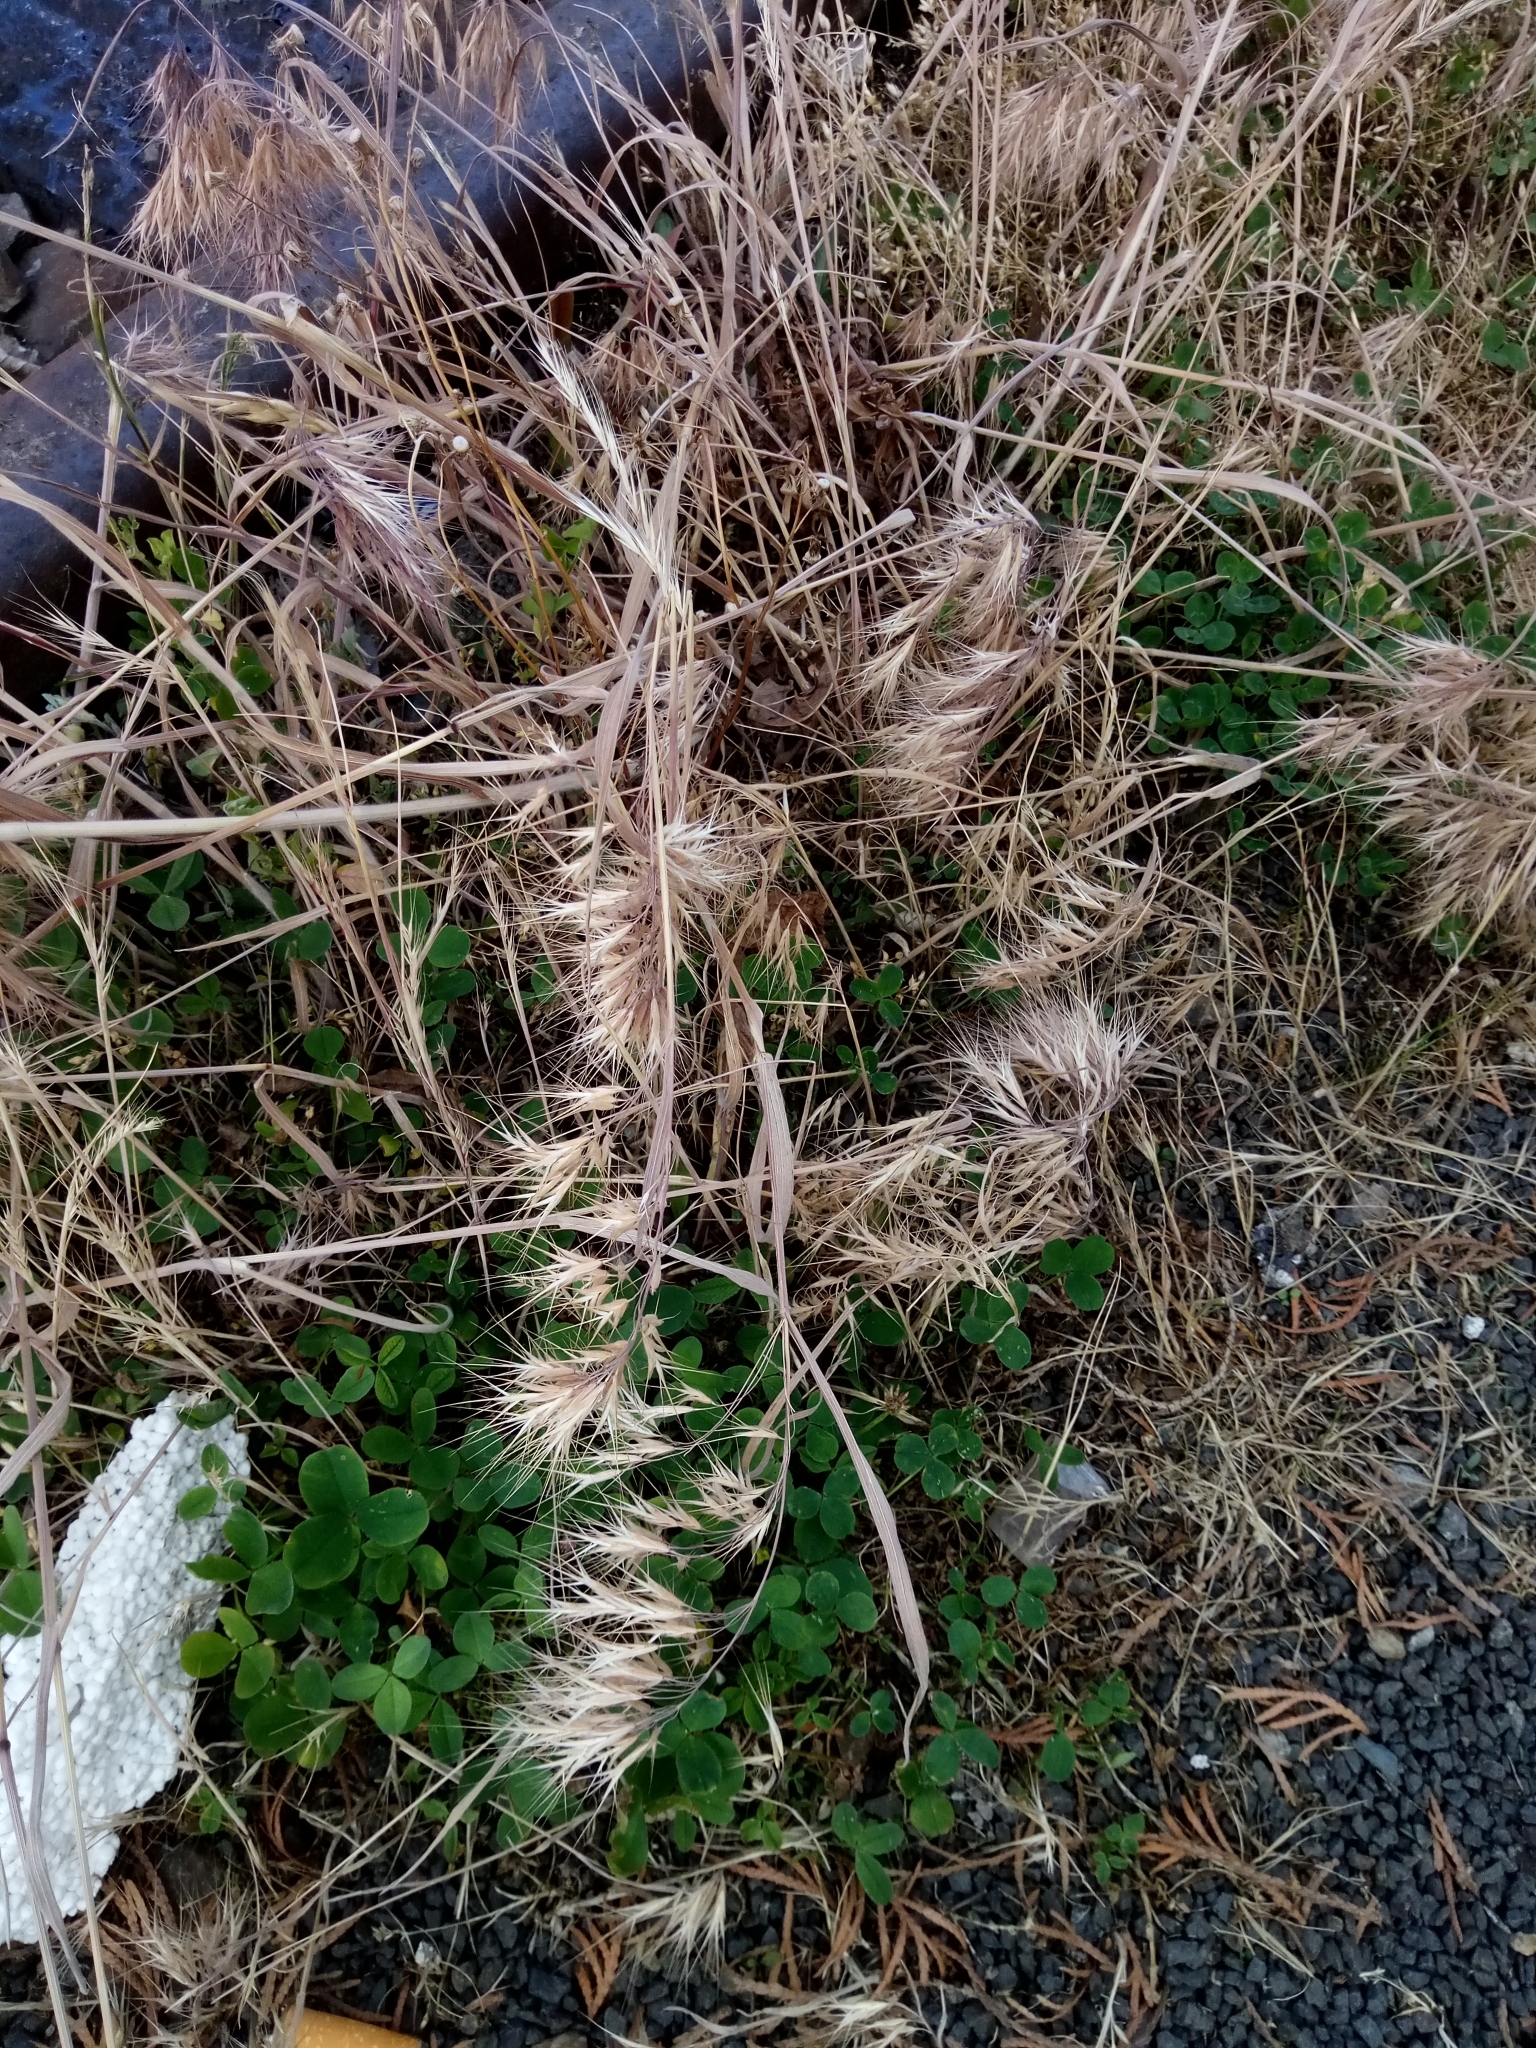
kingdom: Plantae
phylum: Tracheophyta
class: Liliopsida
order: Poales
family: Poaceae
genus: Bromus
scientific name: Bromus tectorum
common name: Cheatgrass
